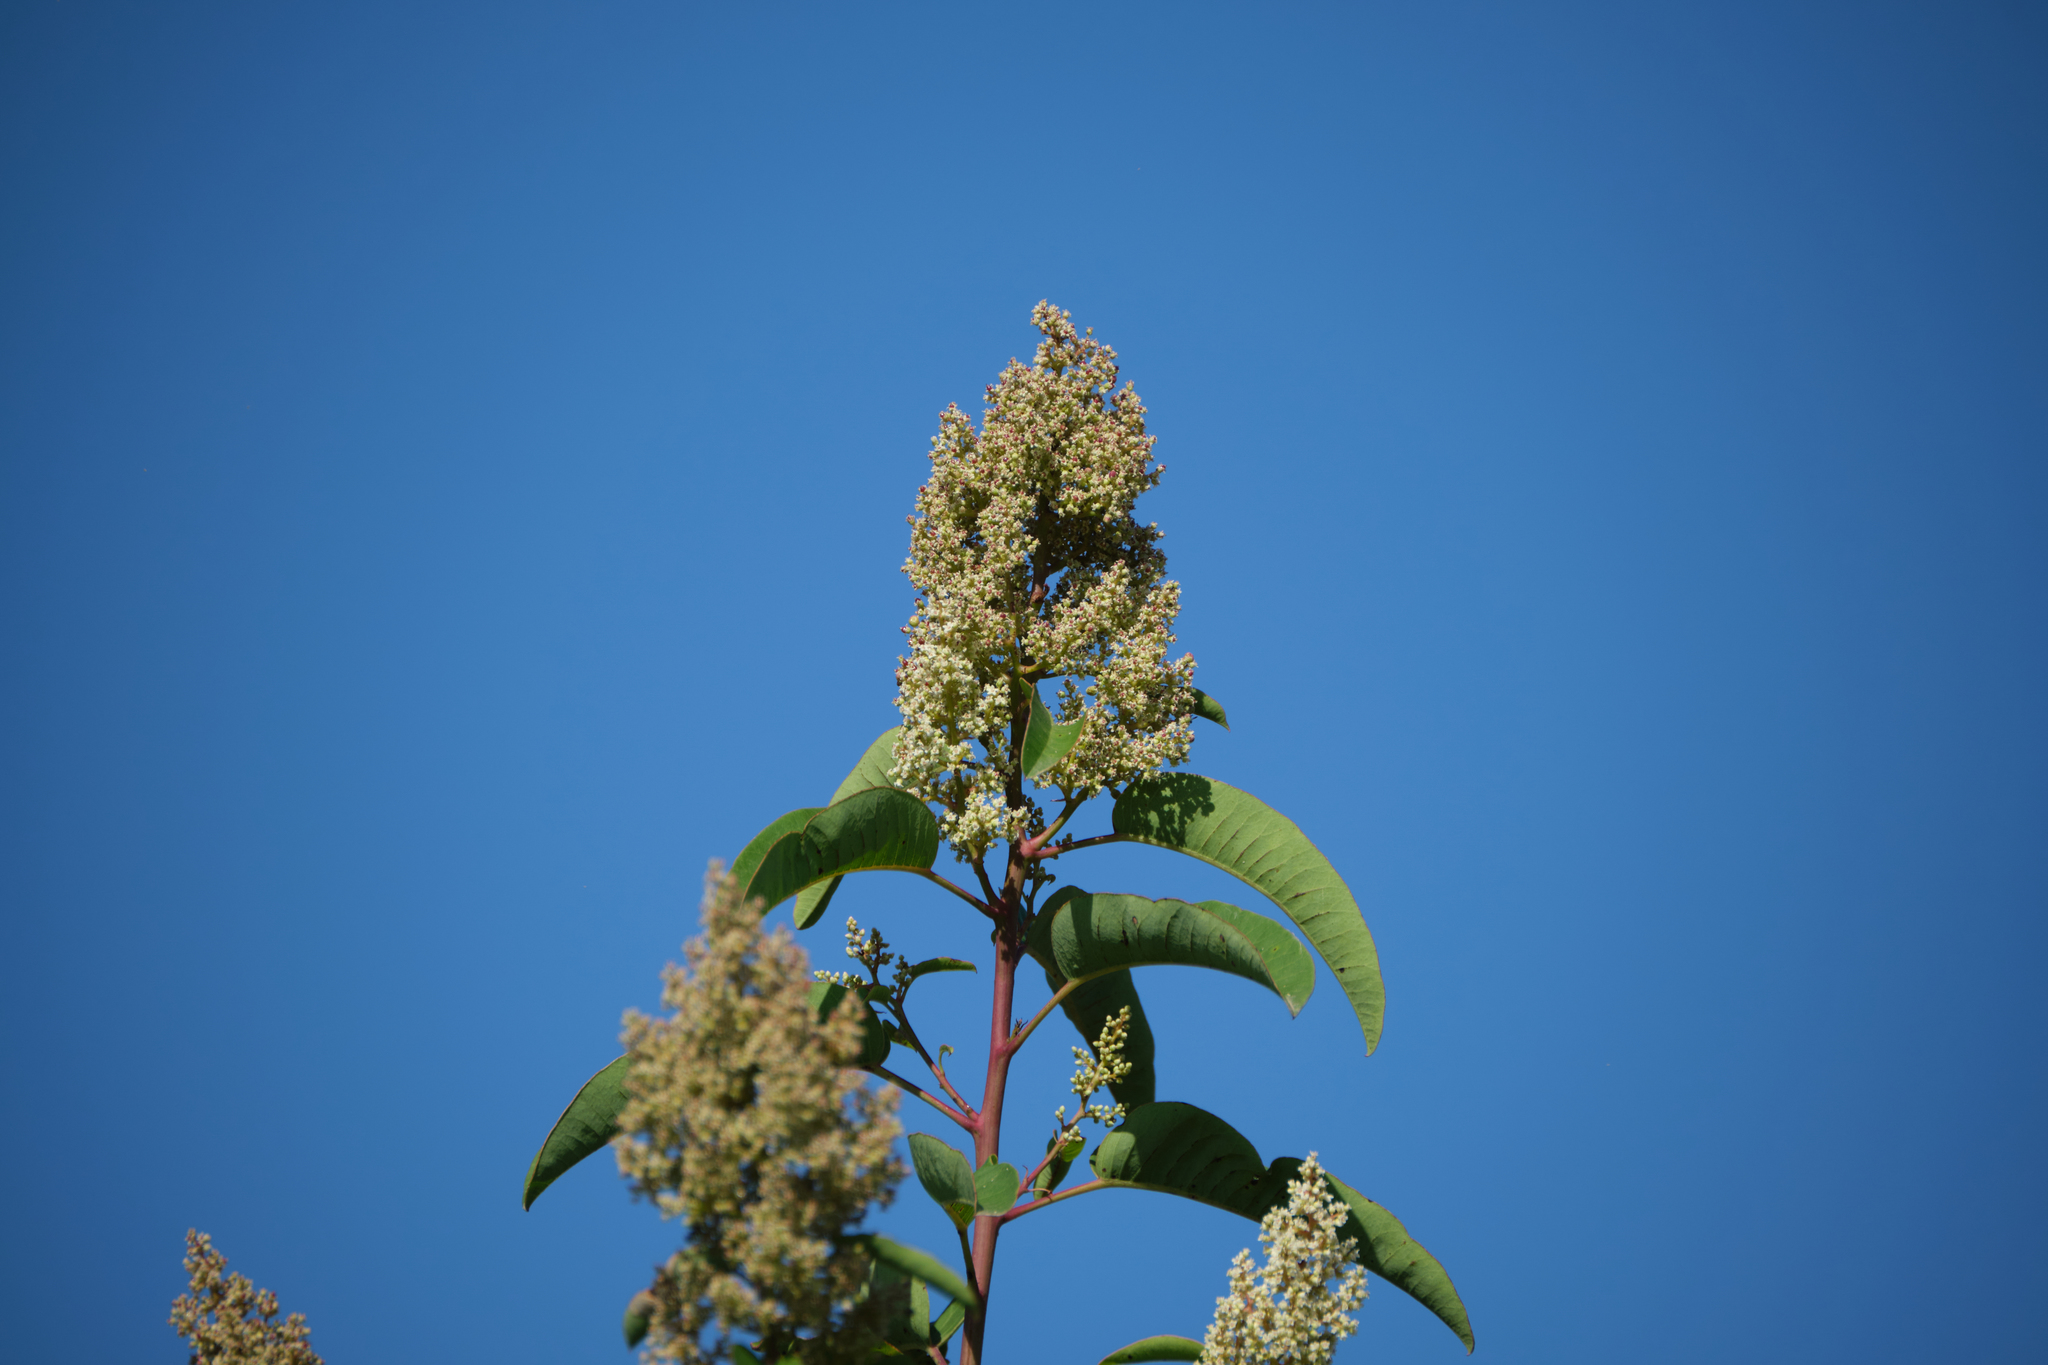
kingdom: Plantae
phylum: Tracheophyta
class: Magnoliopsida
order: Sapindales
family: Anacardiaceae
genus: Malosma
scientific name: Malosma laurina
